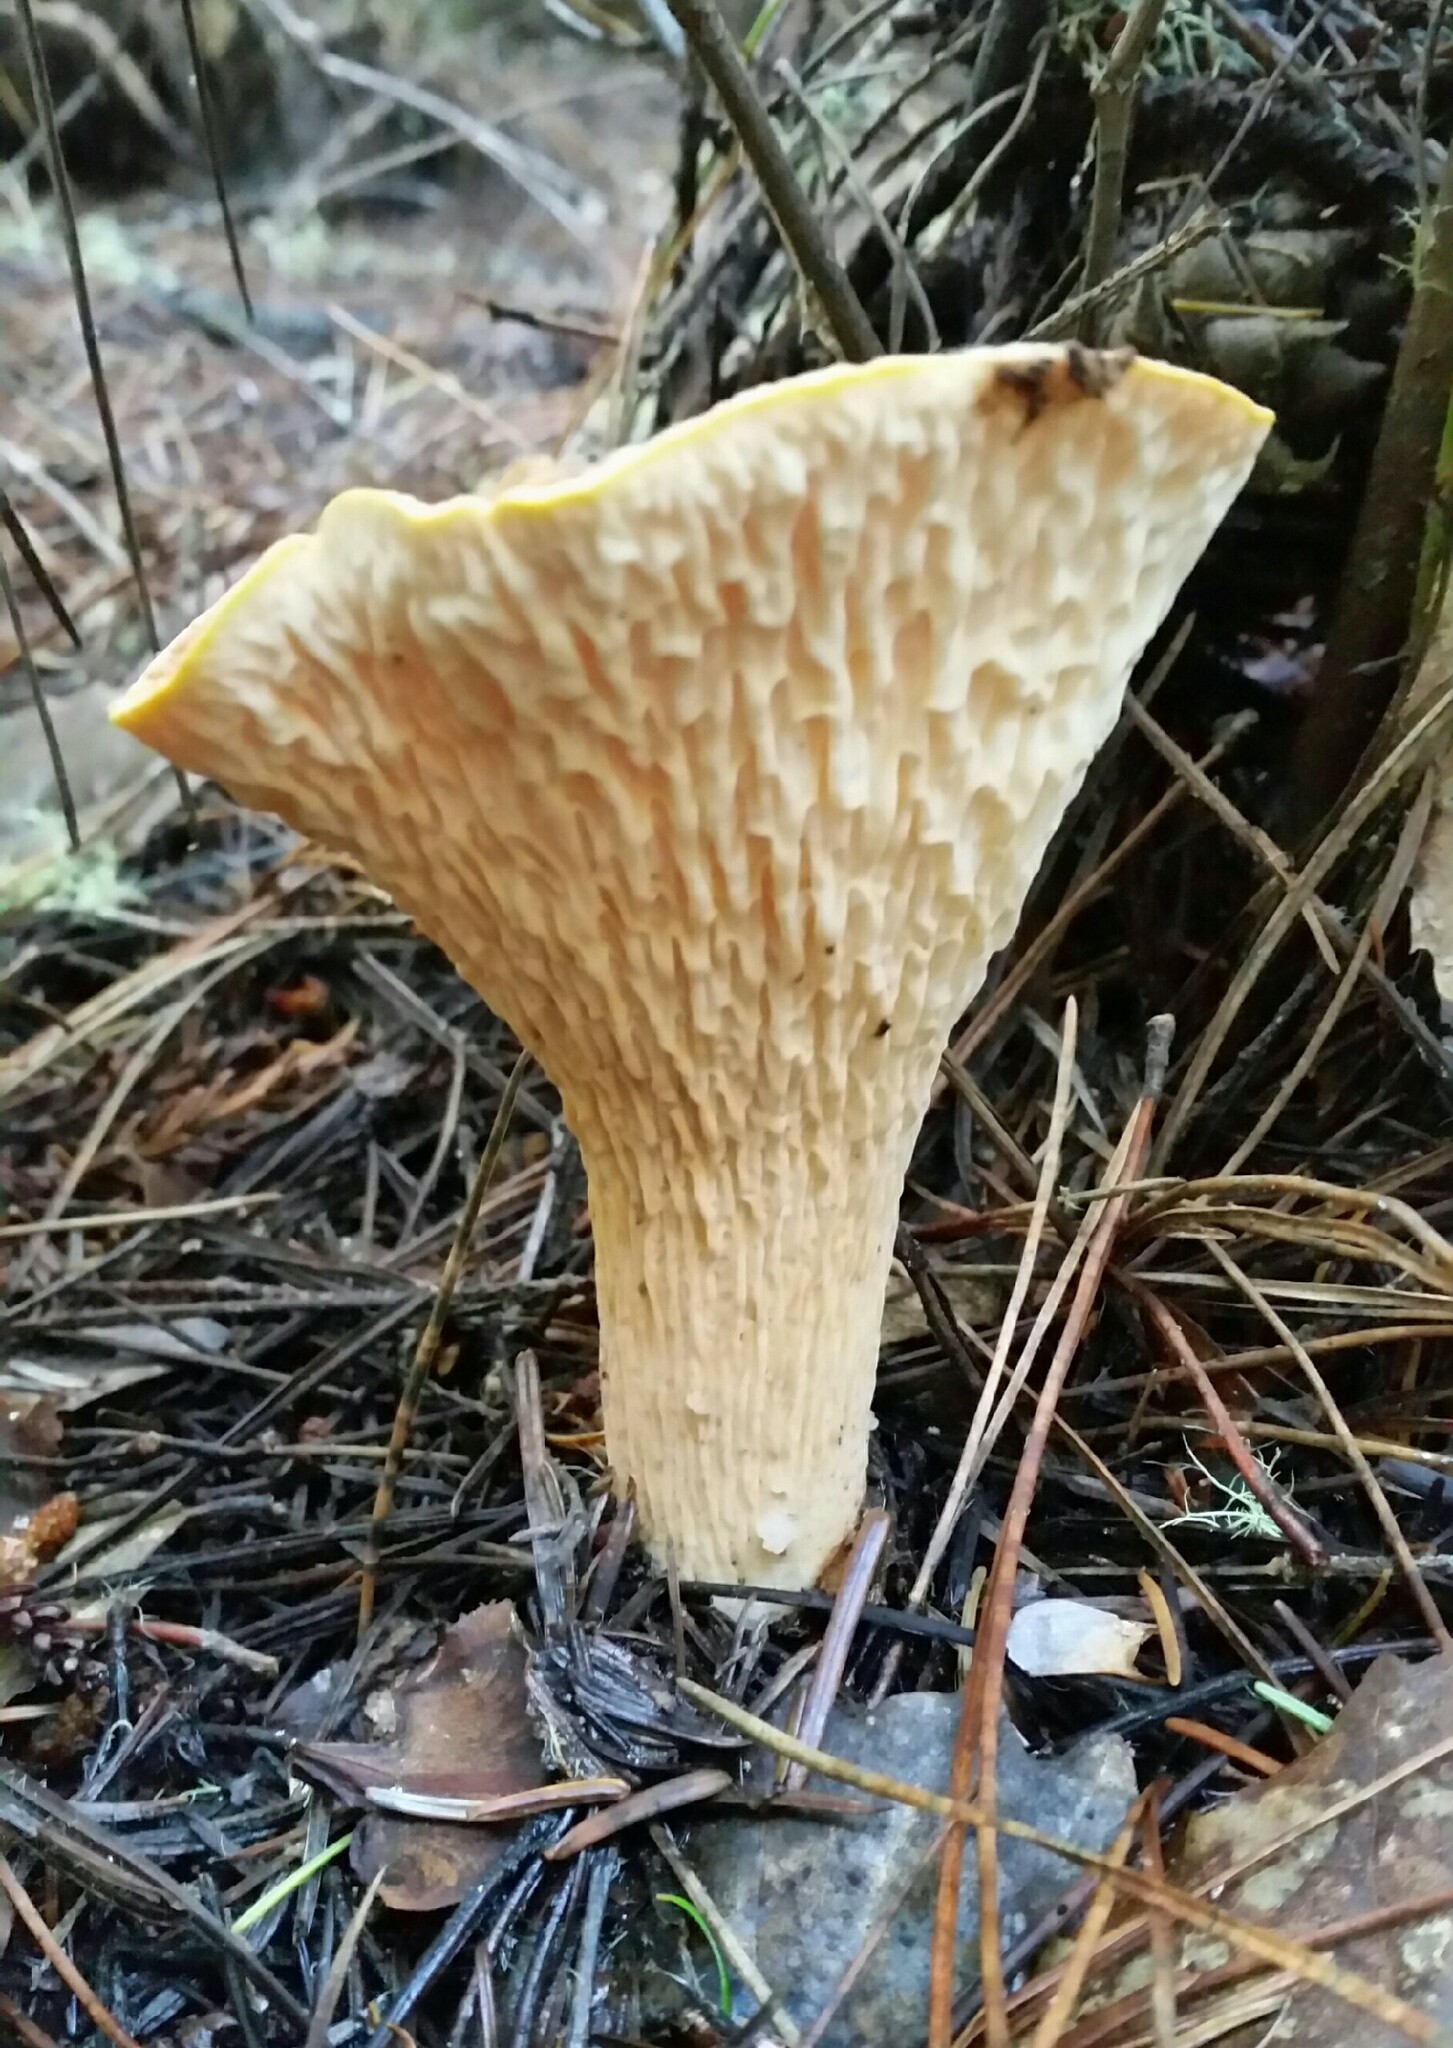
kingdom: Fungi
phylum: Basidiomycota
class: Agaricomycetes
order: Gomphales
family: Gomphaceae
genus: Turbinellus
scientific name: Turbinellus floccosus
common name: Scaly chanterelle
